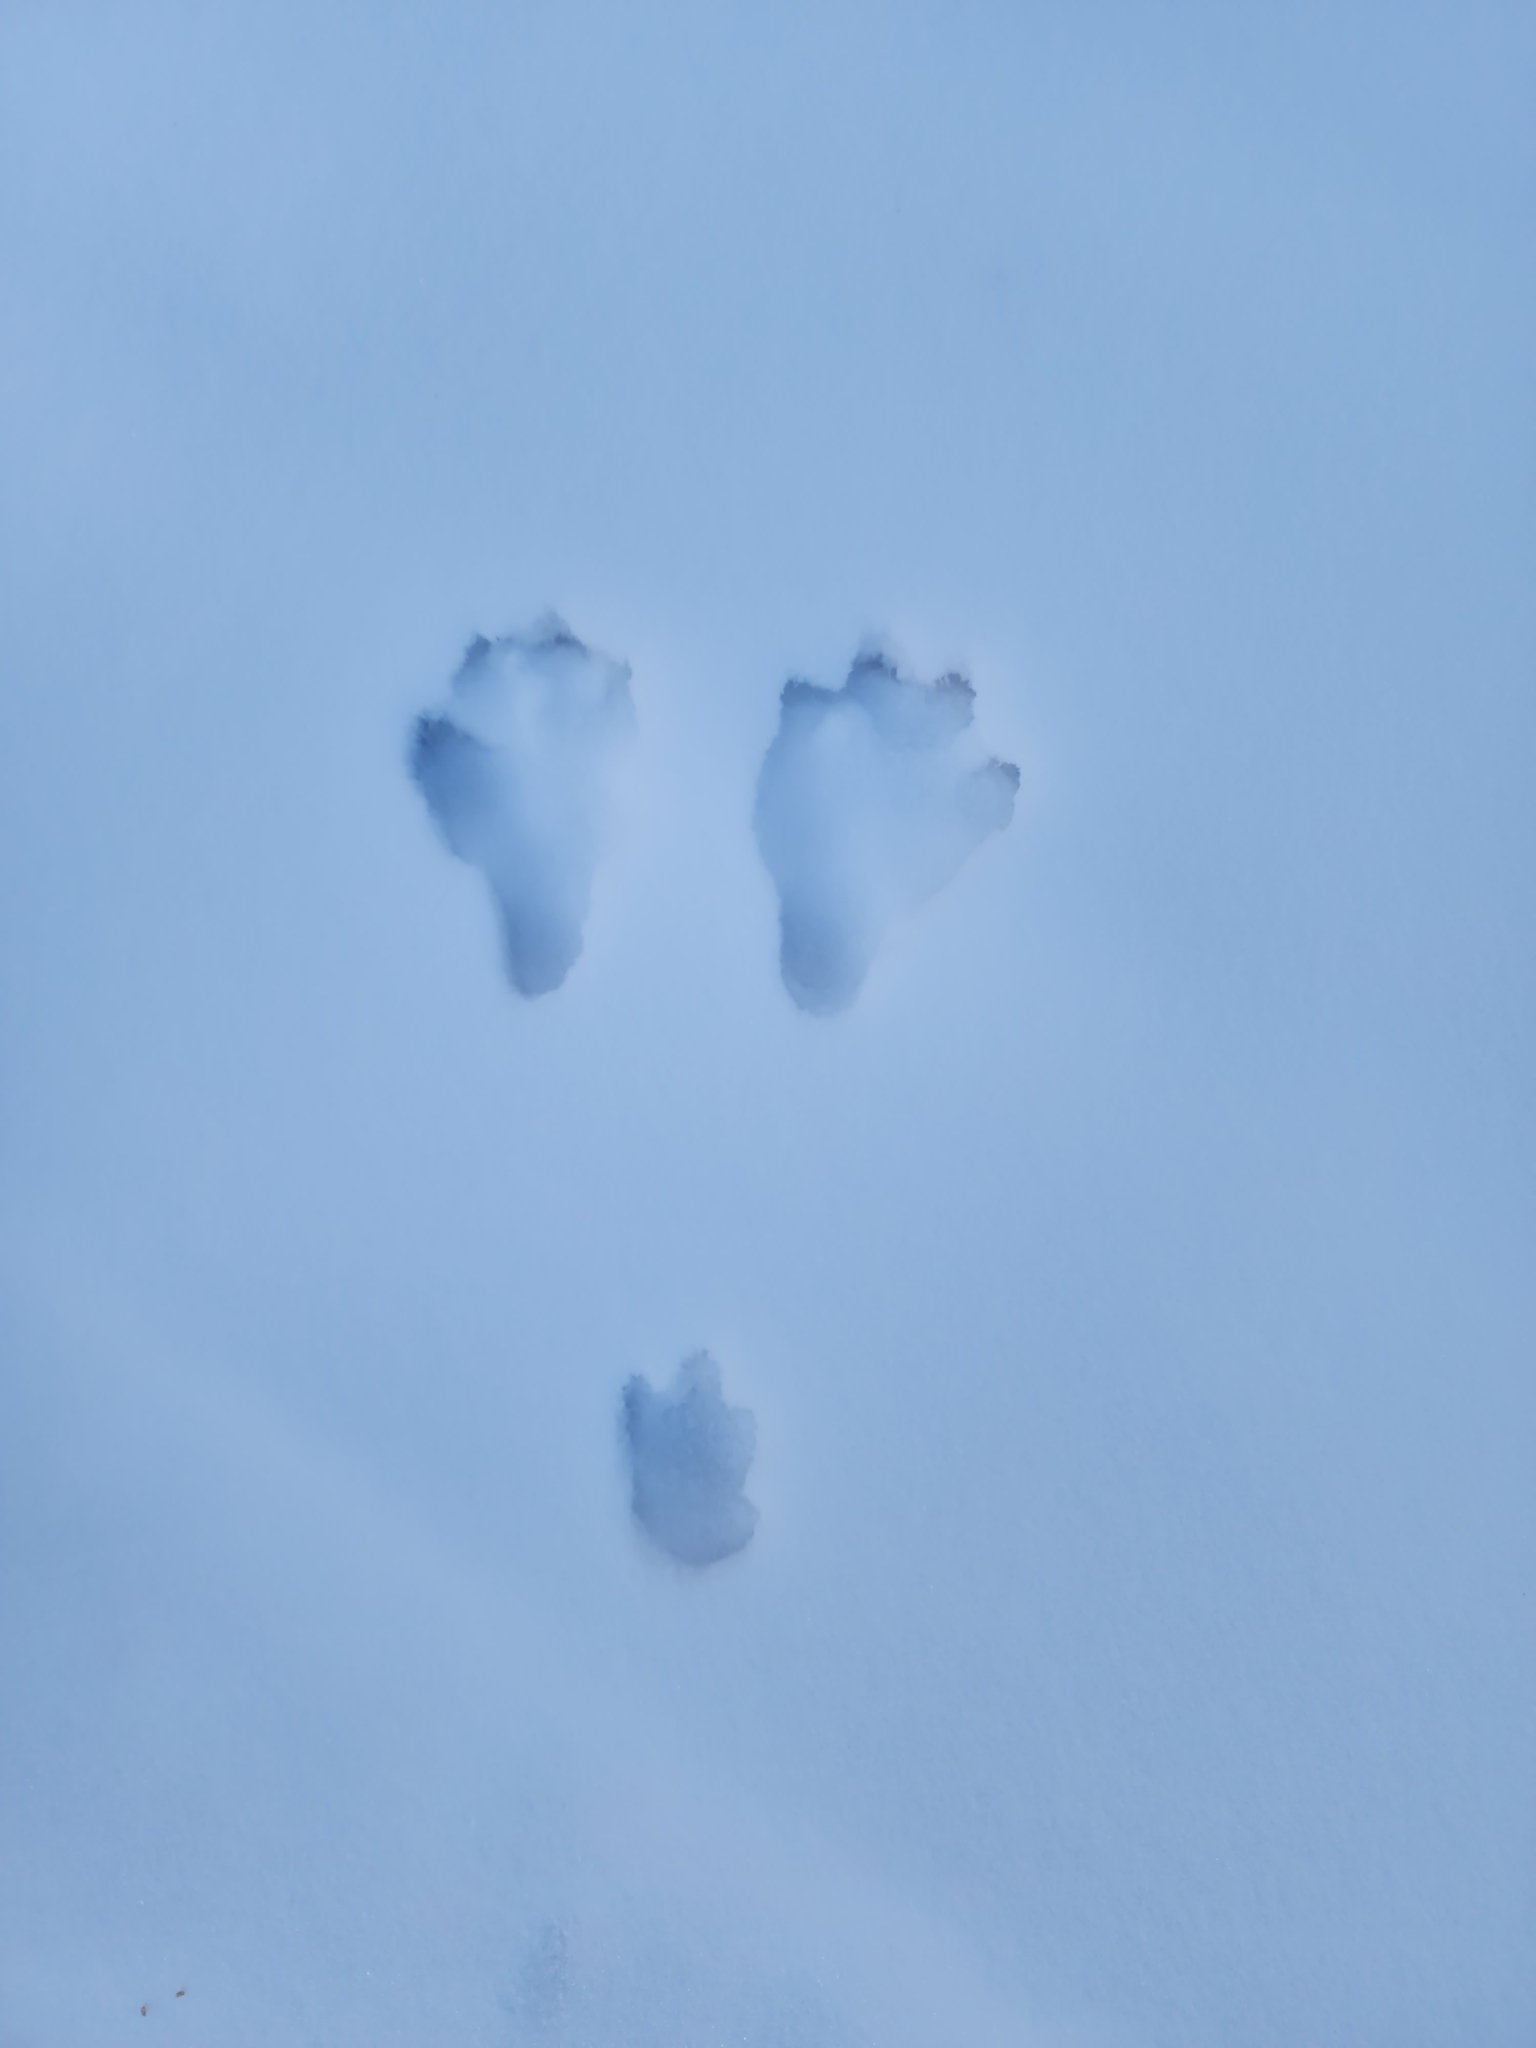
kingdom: Animalia
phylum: Chordata
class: Mammalia
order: Lagomorpha
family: Leporidae
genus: Lepus
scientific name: Lepus americanus
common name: Snowshoe hare
